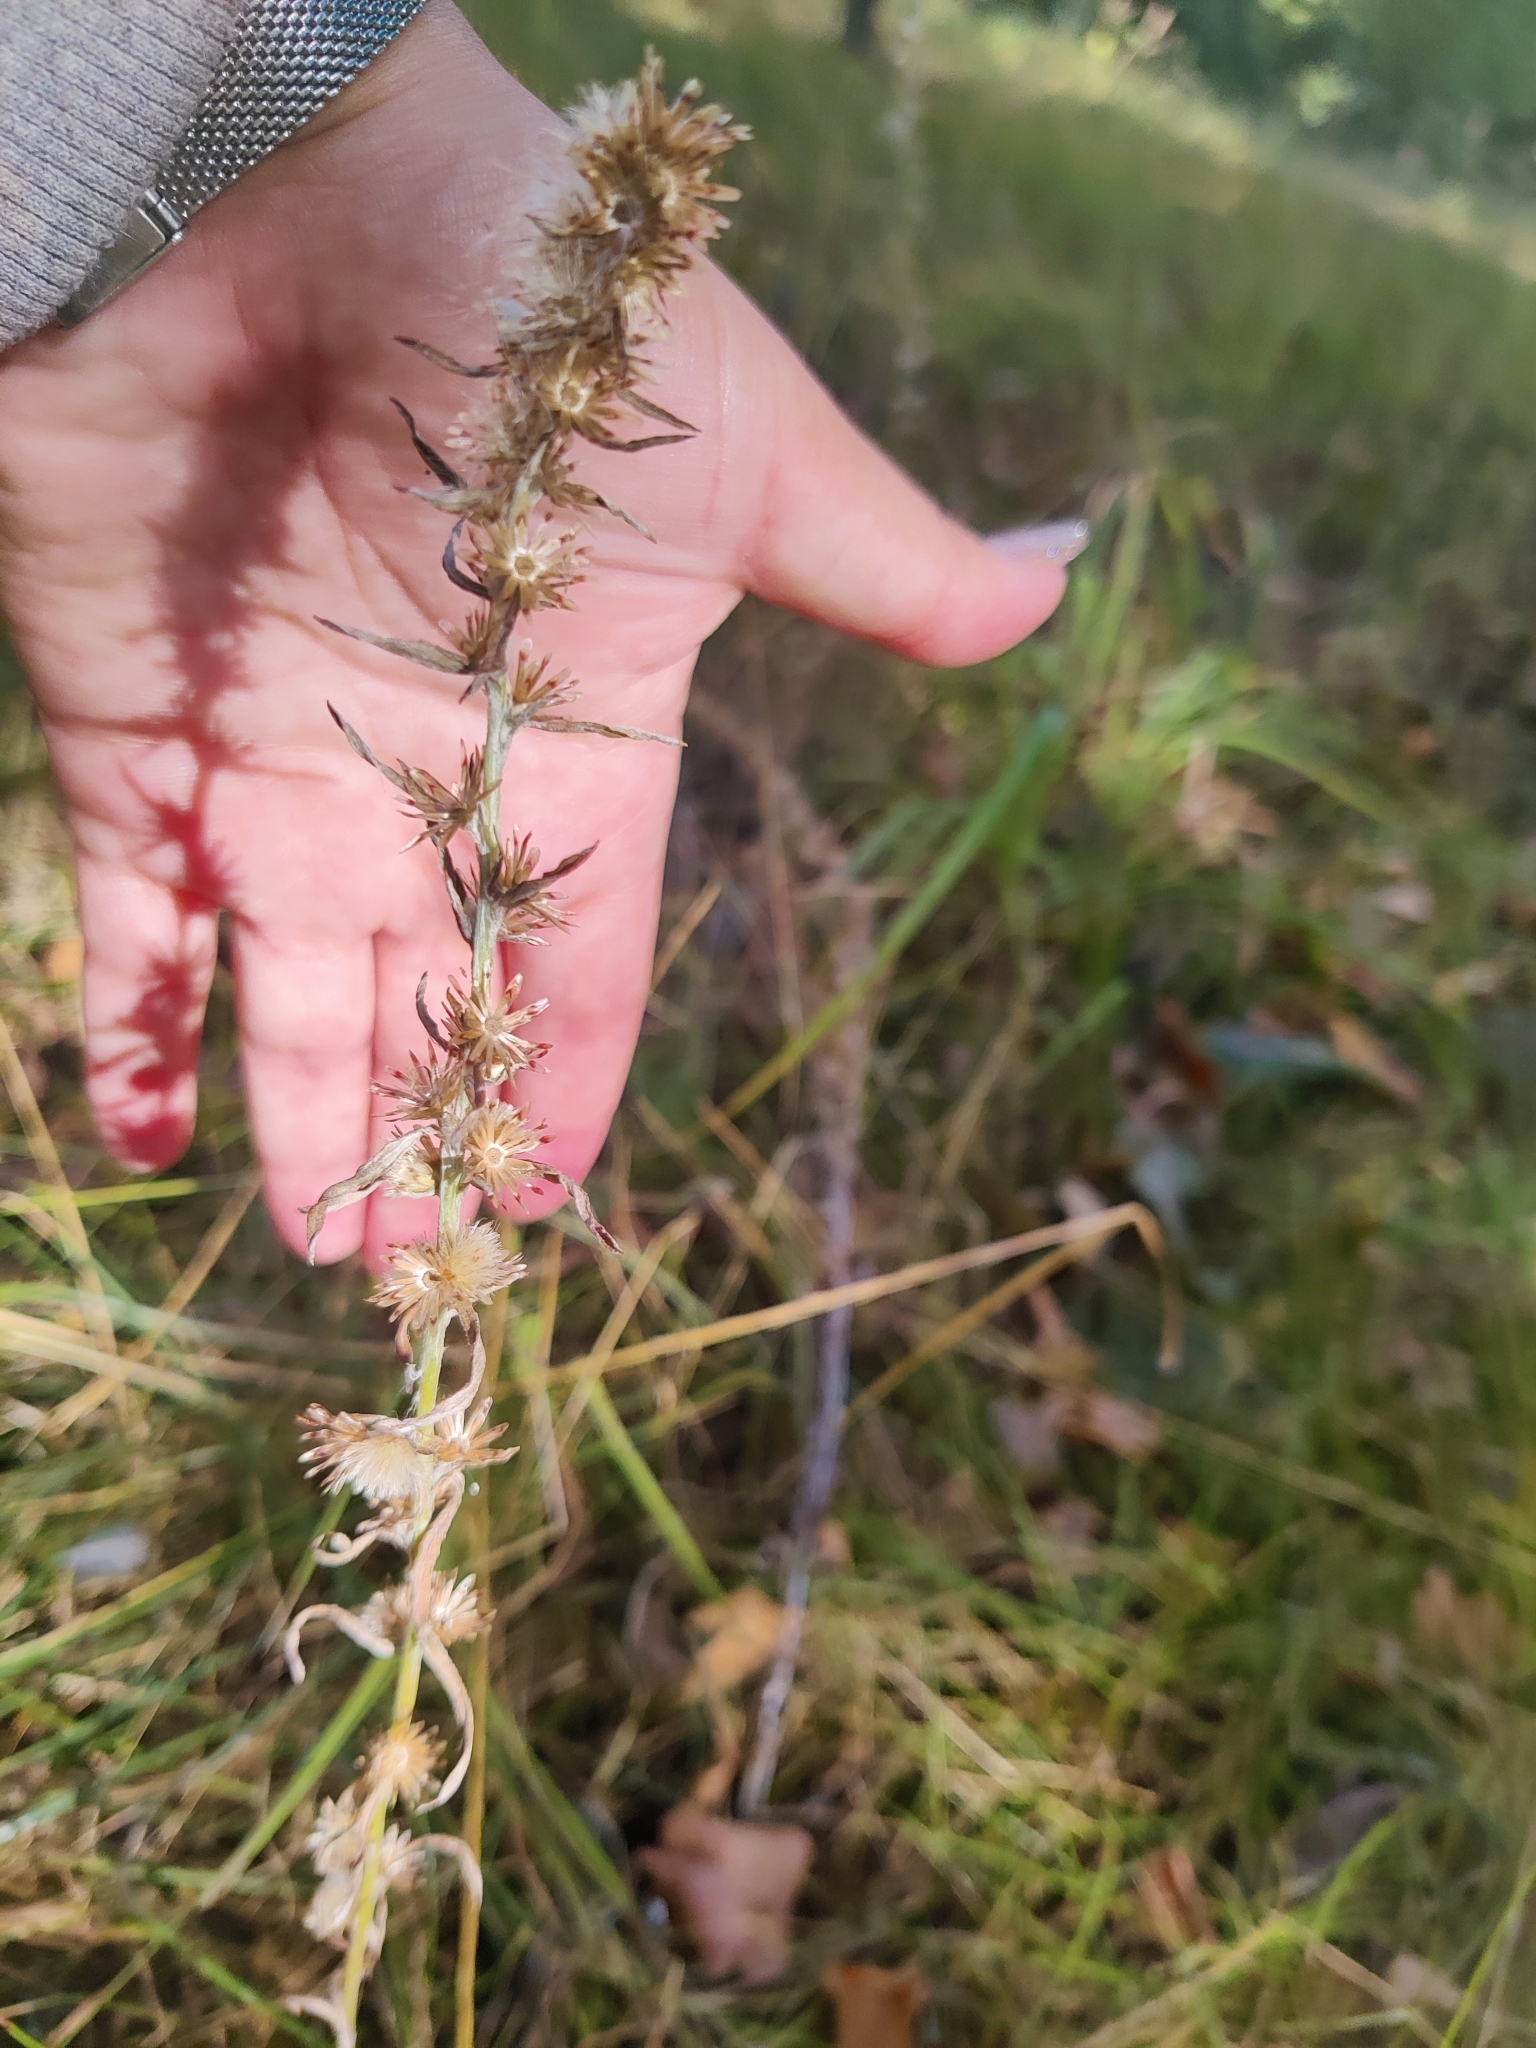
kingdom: Plantae
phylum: Tracheophyta
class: Magnoliopsida
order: Asterales
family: Asteraceae
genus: Omalotheca
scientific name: Omalotheca sylvatica
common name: Heath cudweed
